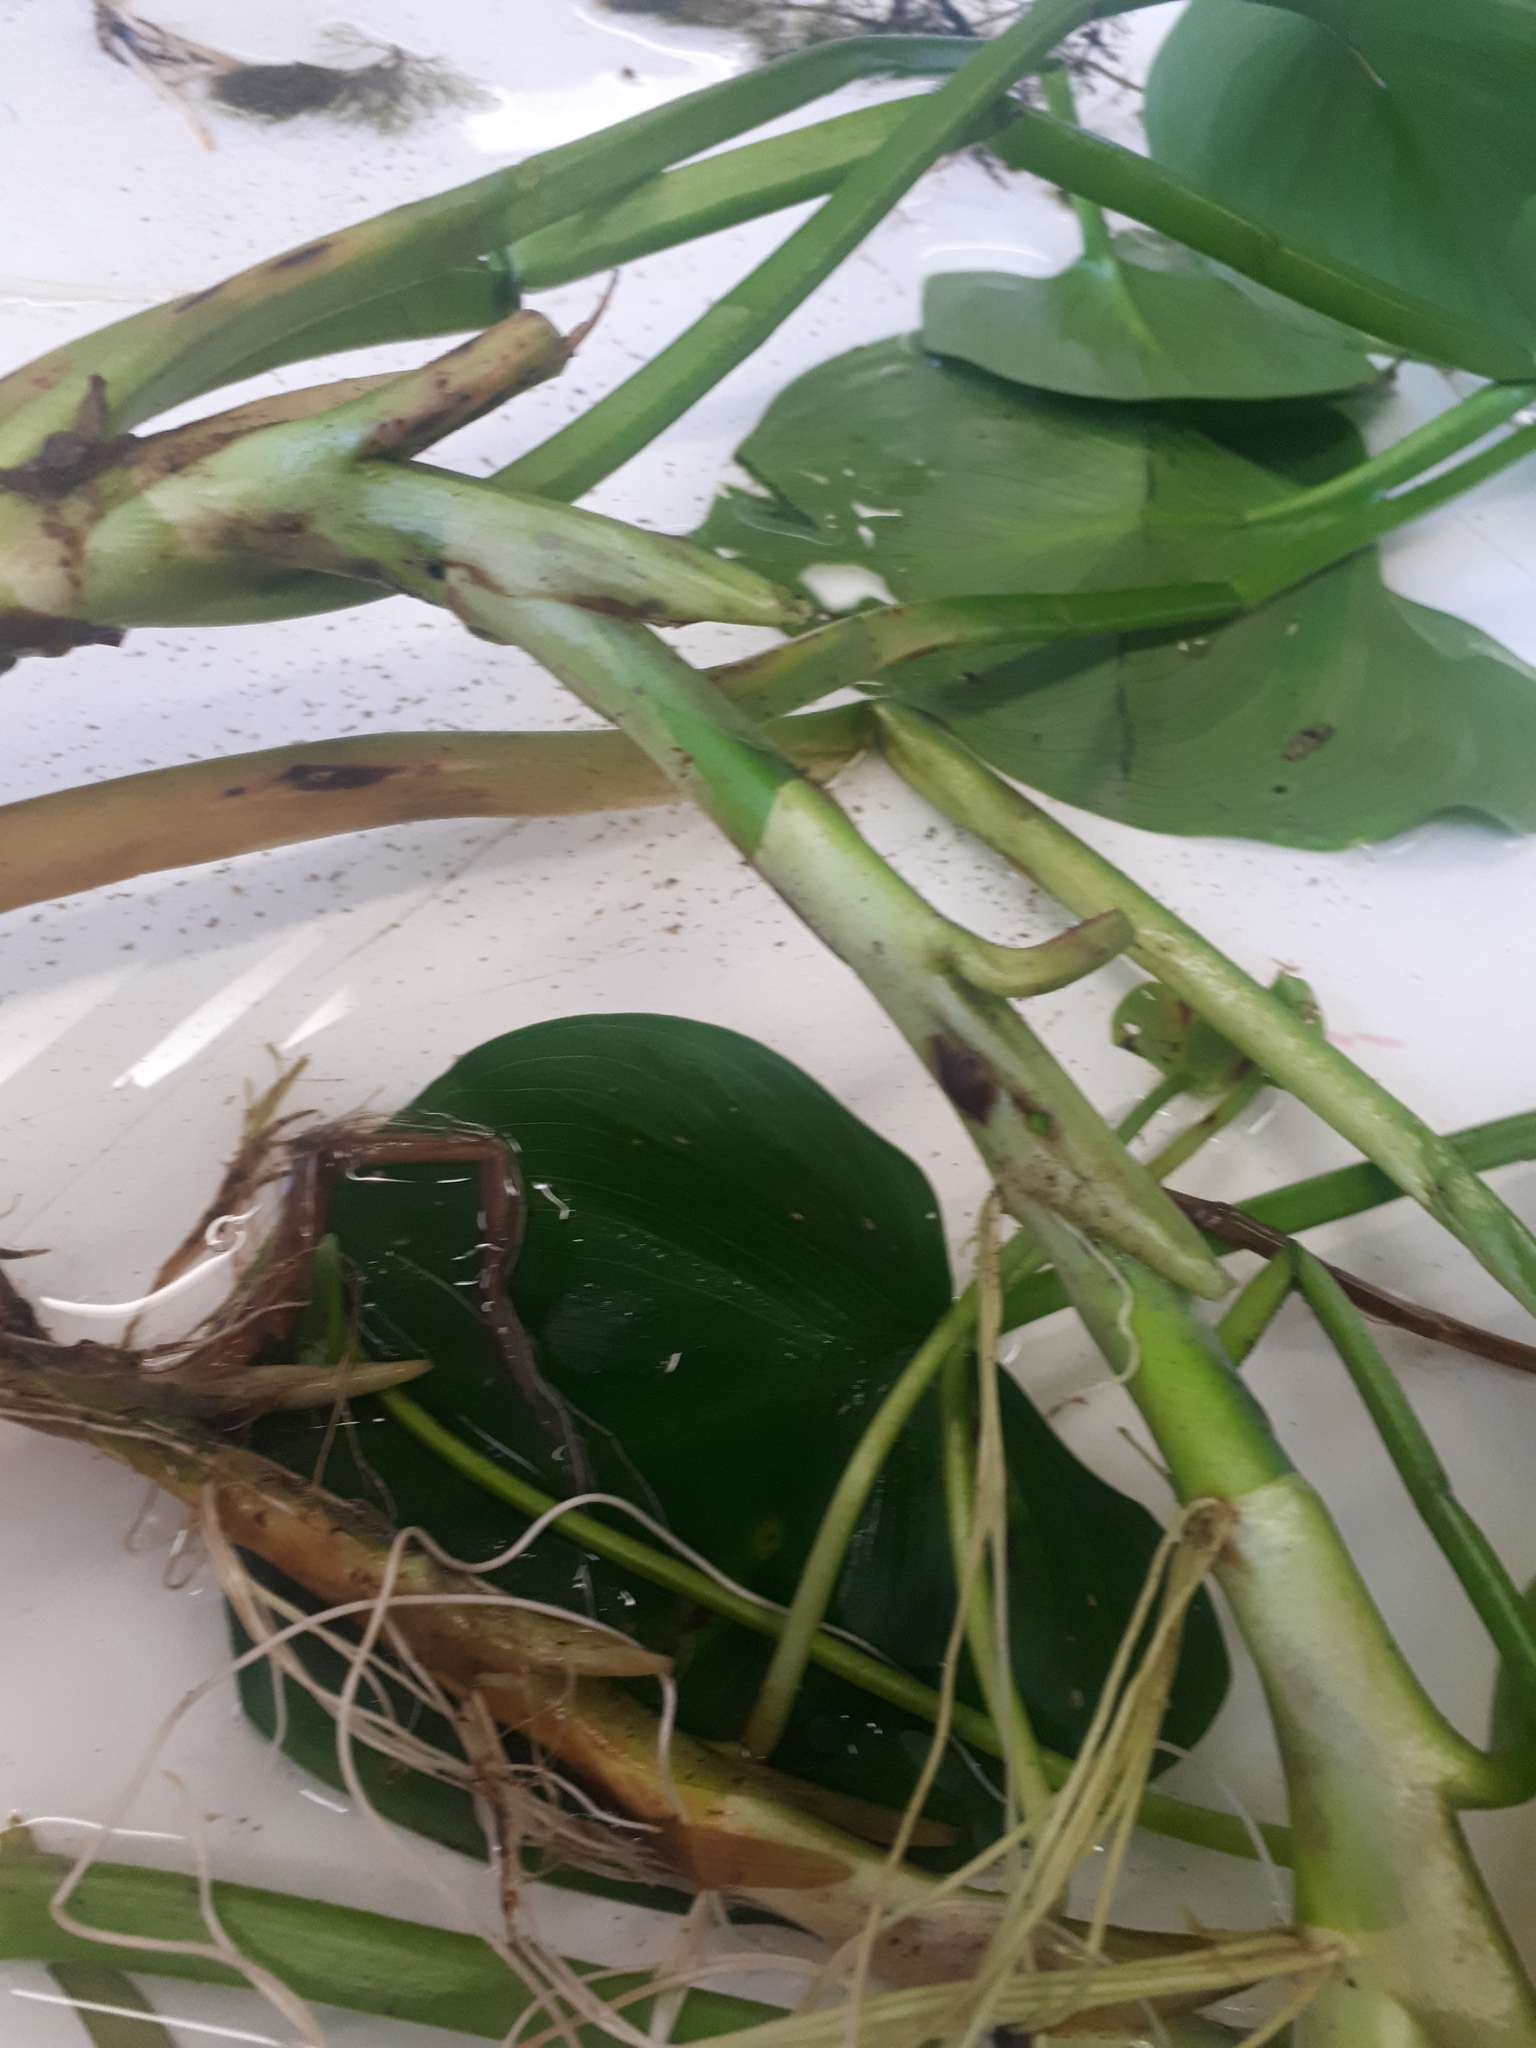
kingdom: Plantae
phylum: Tracheophyta
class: Liliopsida
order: Alismatales
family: Araceae
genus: Calla
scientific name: Calla palustris
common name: Bog arum
